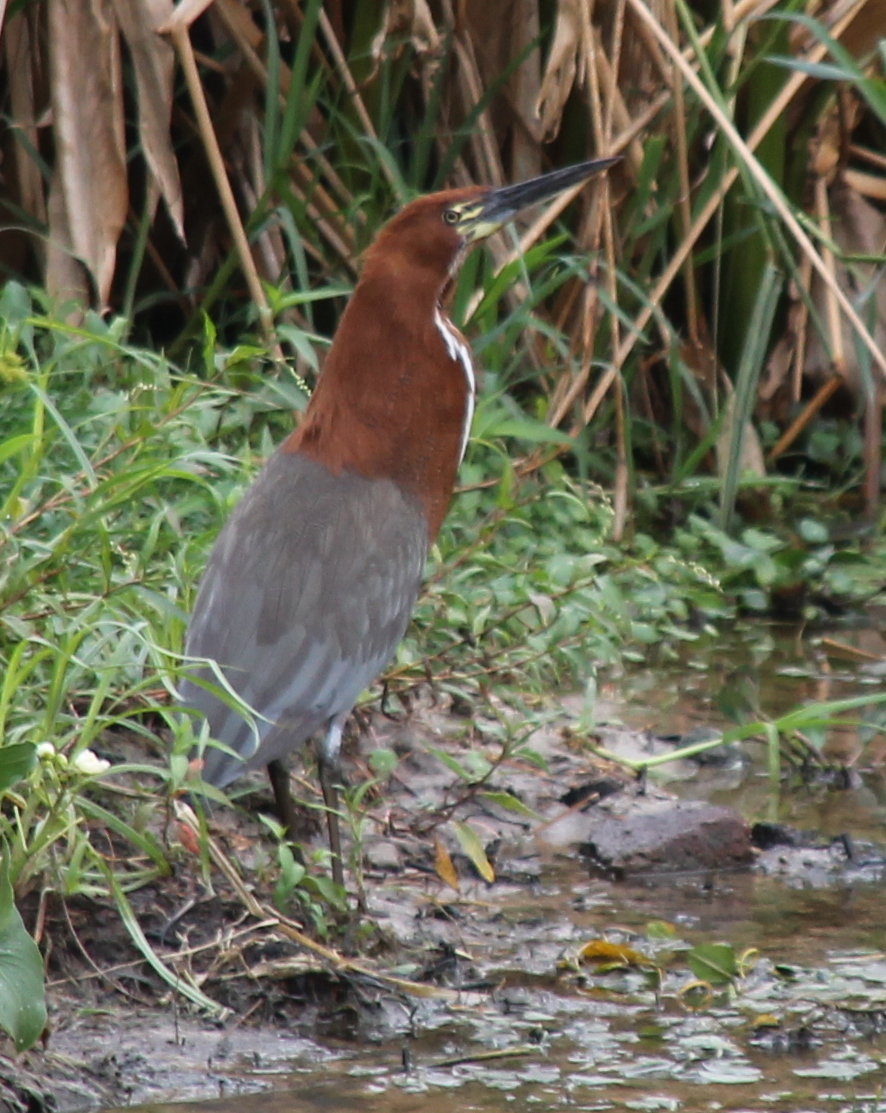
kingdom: Animalia
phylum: Chordata
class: Aves
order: Pelecaniformes
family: Ardeidae
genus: Tigrisoma
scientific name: Tigrisoma lineatum
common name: Rufescent tiger-heron
